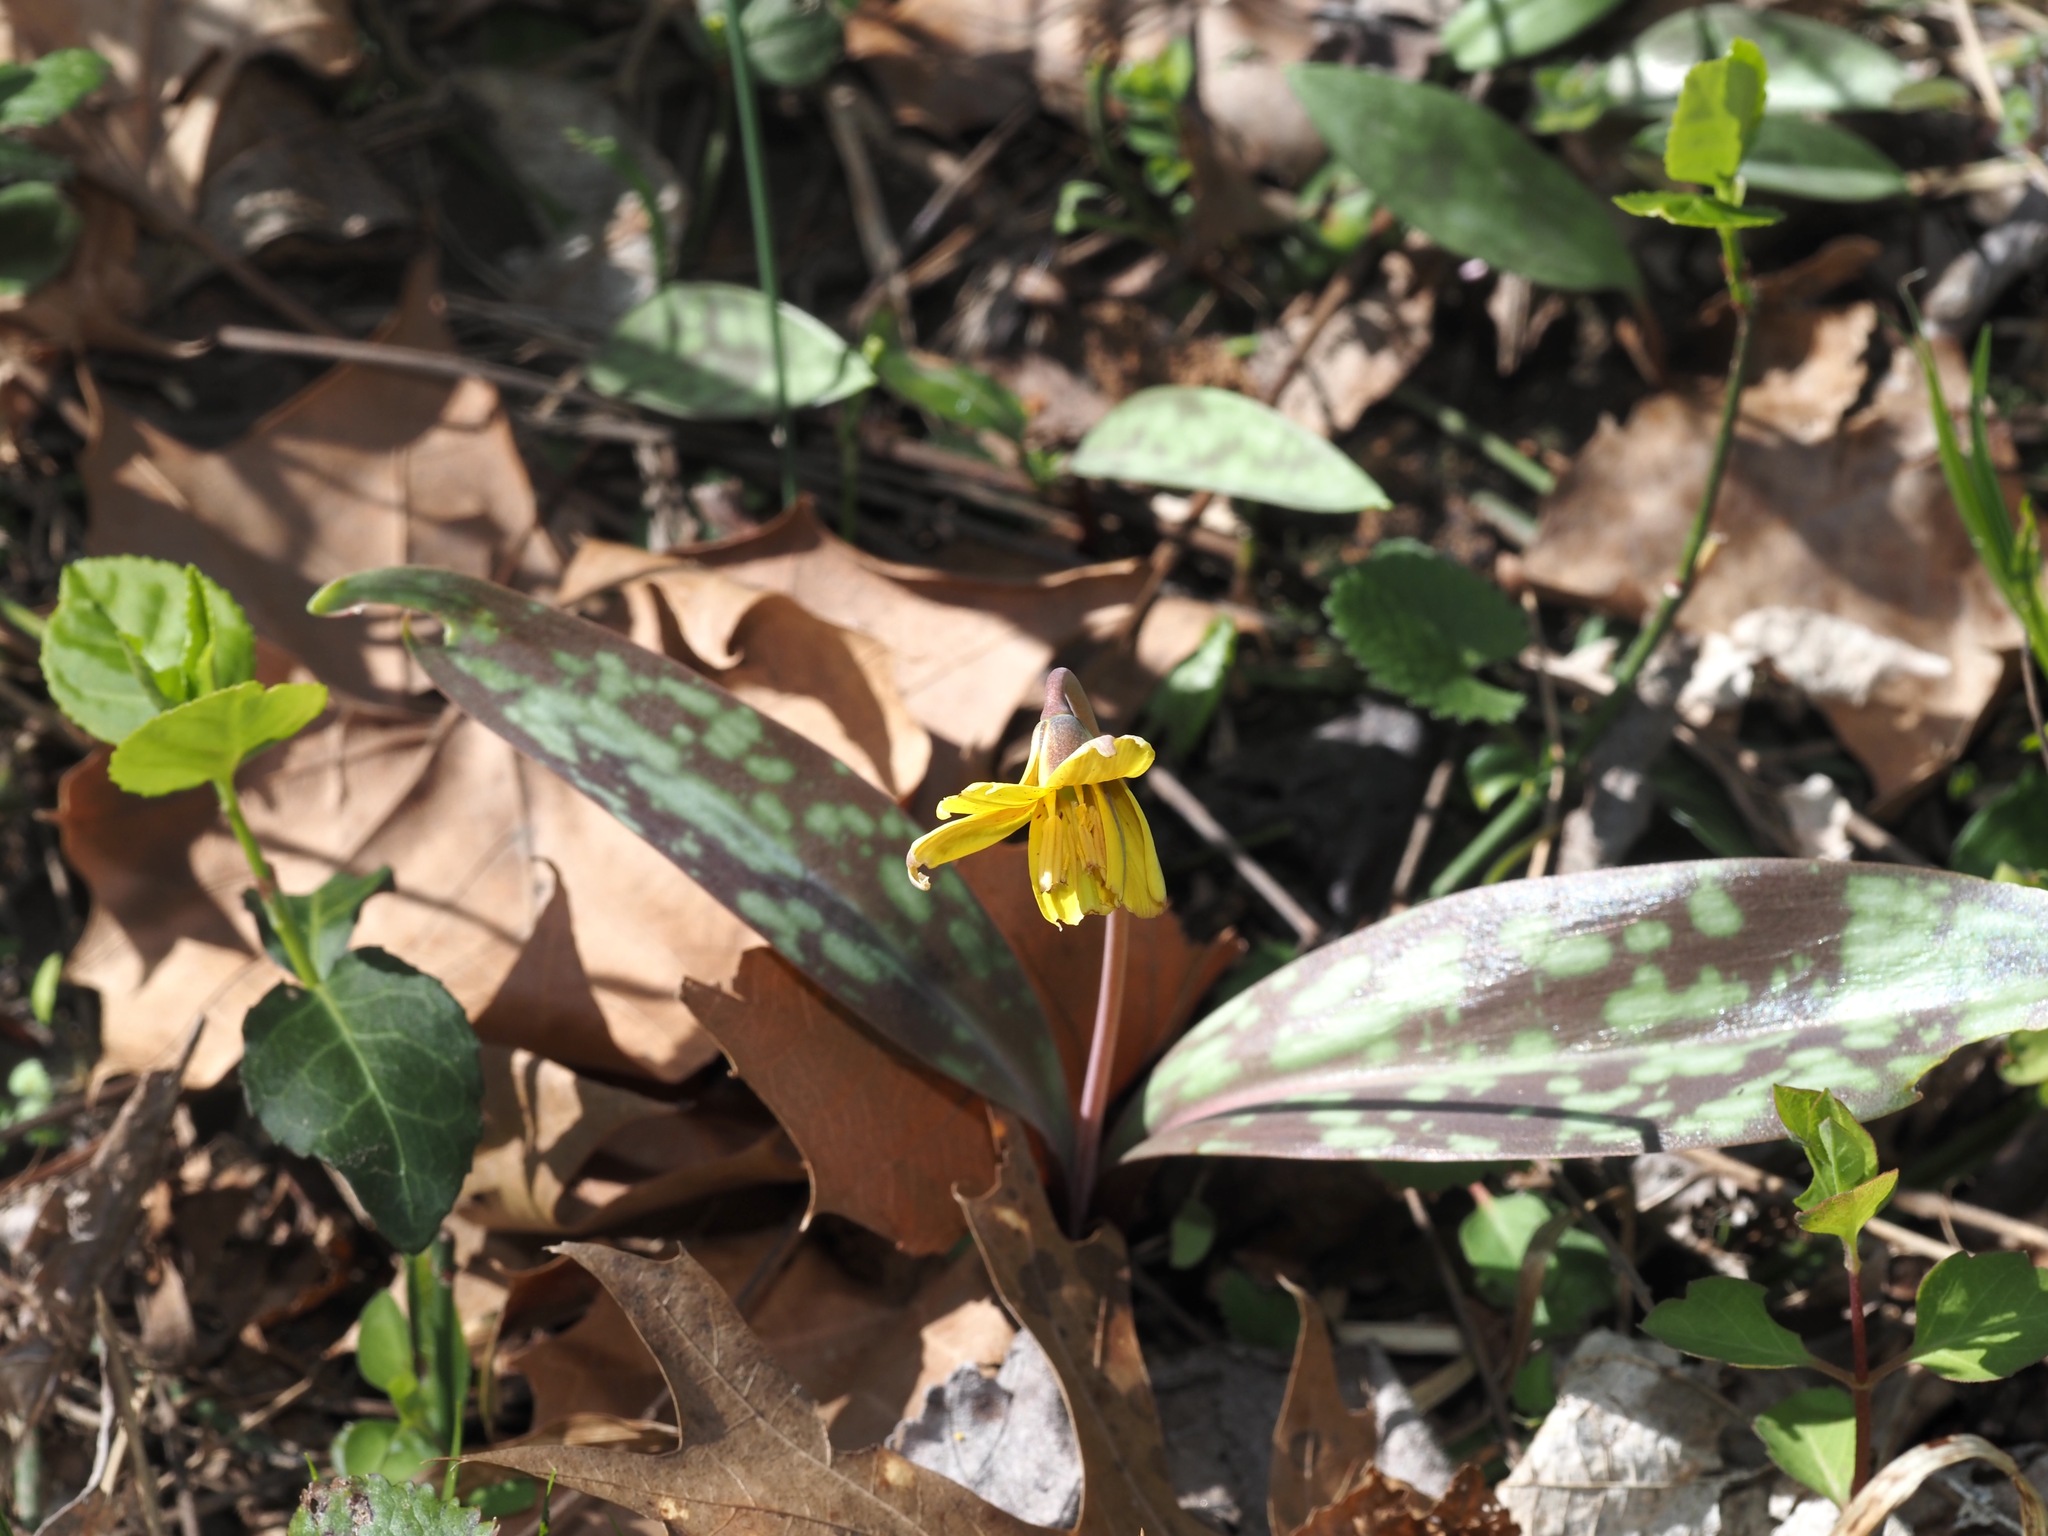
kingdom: Plantae
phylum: Tracheophyta
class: Liliopsida
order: Liliales
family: Liliaceae
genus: Erythronium
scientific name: Erythronium americanum
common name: Yellow adder's-tongue
